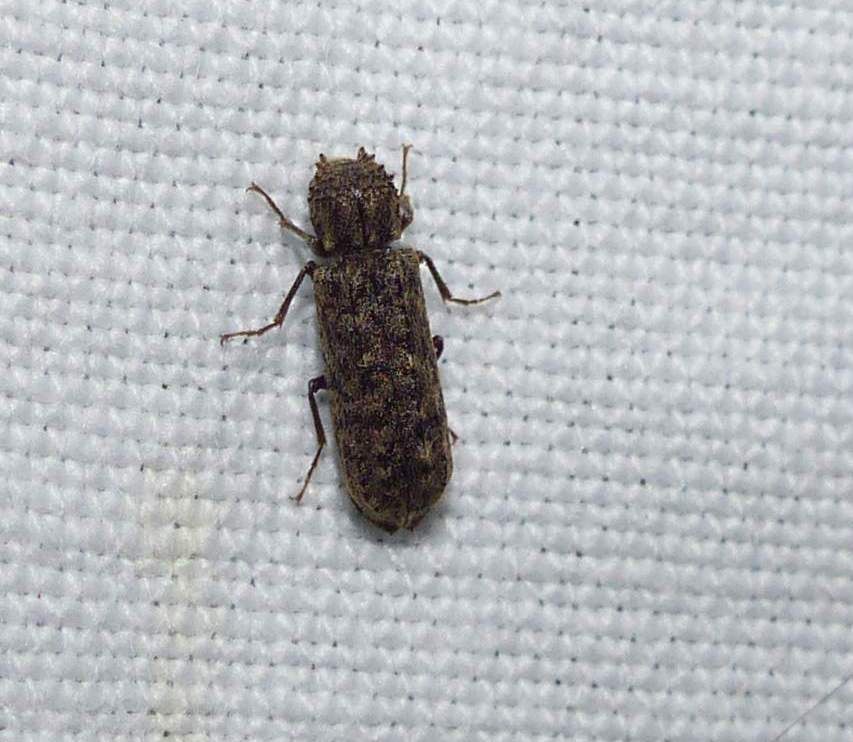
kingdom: Animalia
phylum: Arthropoda
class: Insecta
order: Coleoptera
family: Bostrichidae
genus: Lichenophanes
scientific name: Lichenophanes bicornis
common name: Two-horned powder-post beetle
